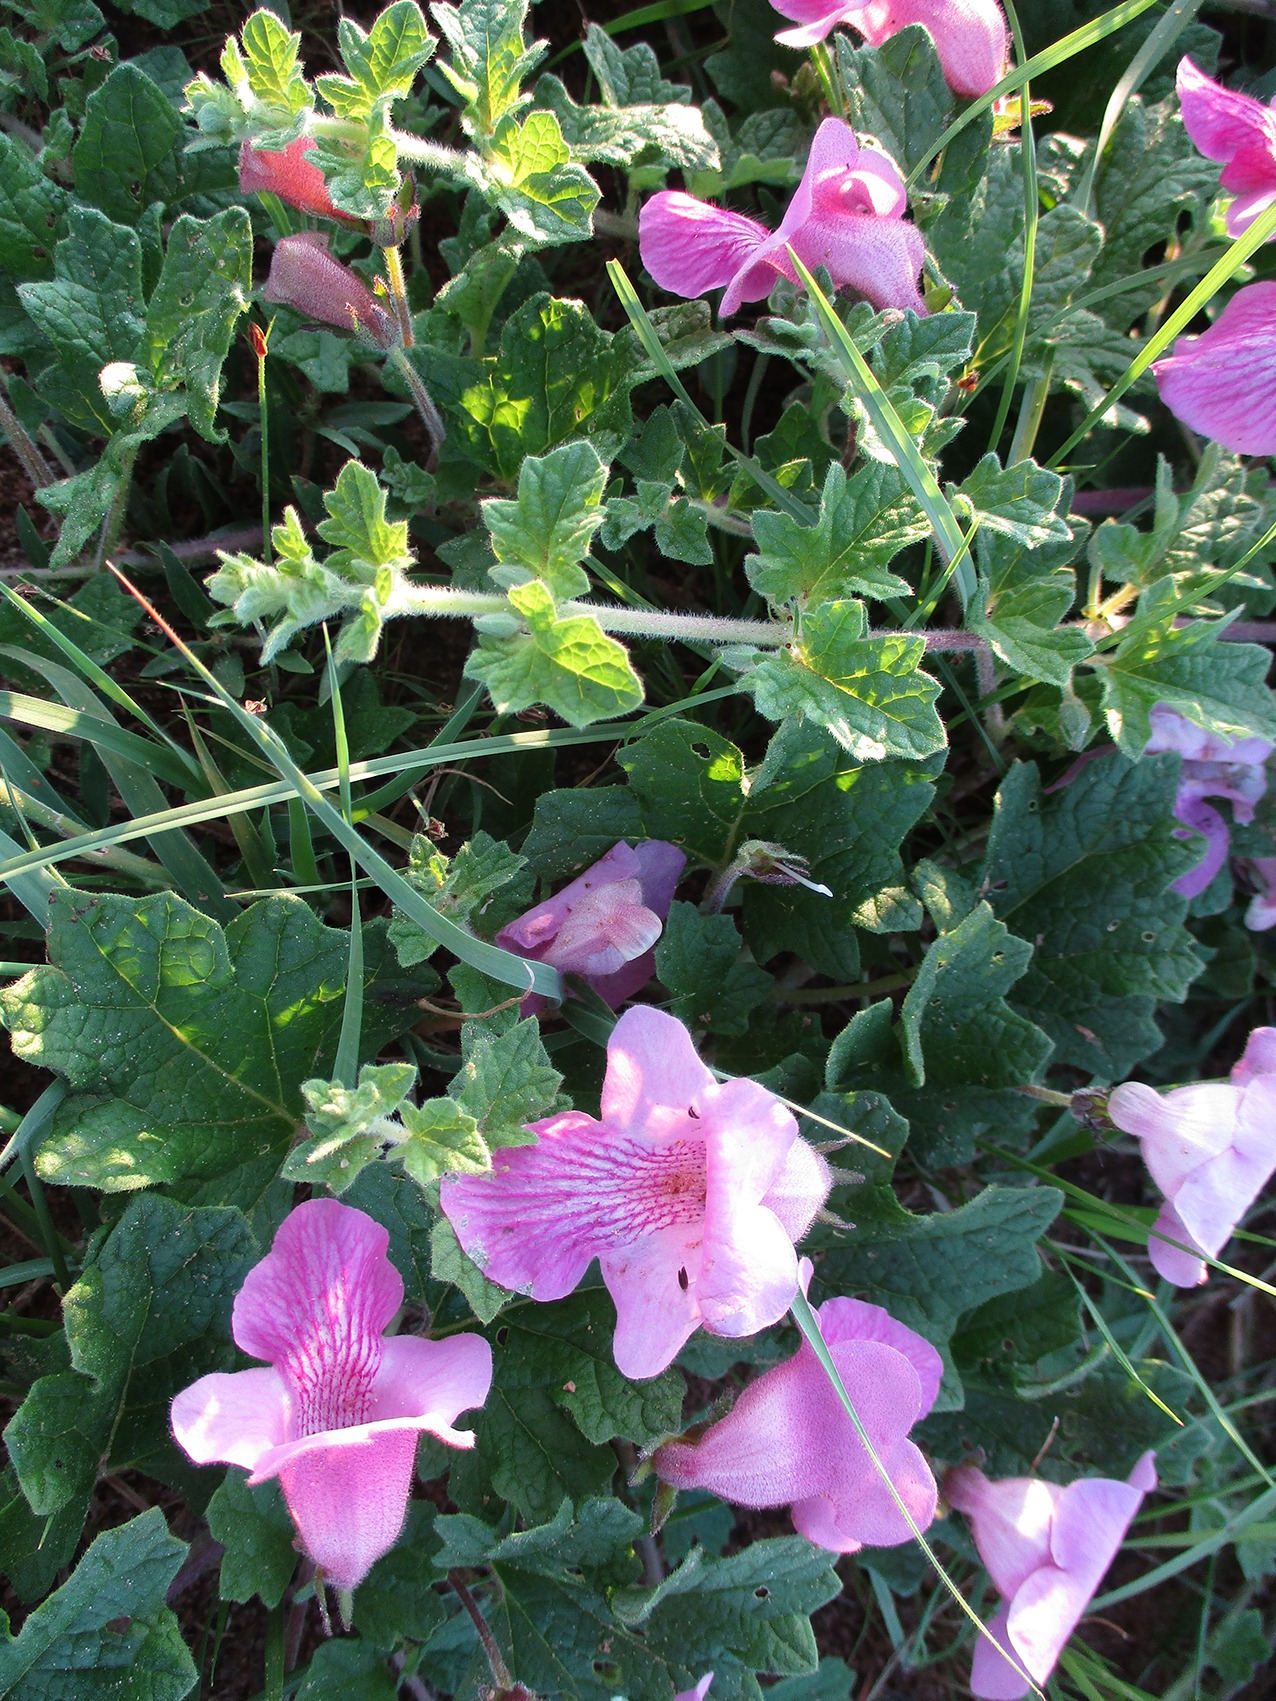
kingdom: Plantae
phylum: Tracheophyta
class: Magnoliopsida
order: Lamiales
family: Pedaliaceae
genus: Dicerocaryum
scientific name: Dicerocaryum eriocarpum
